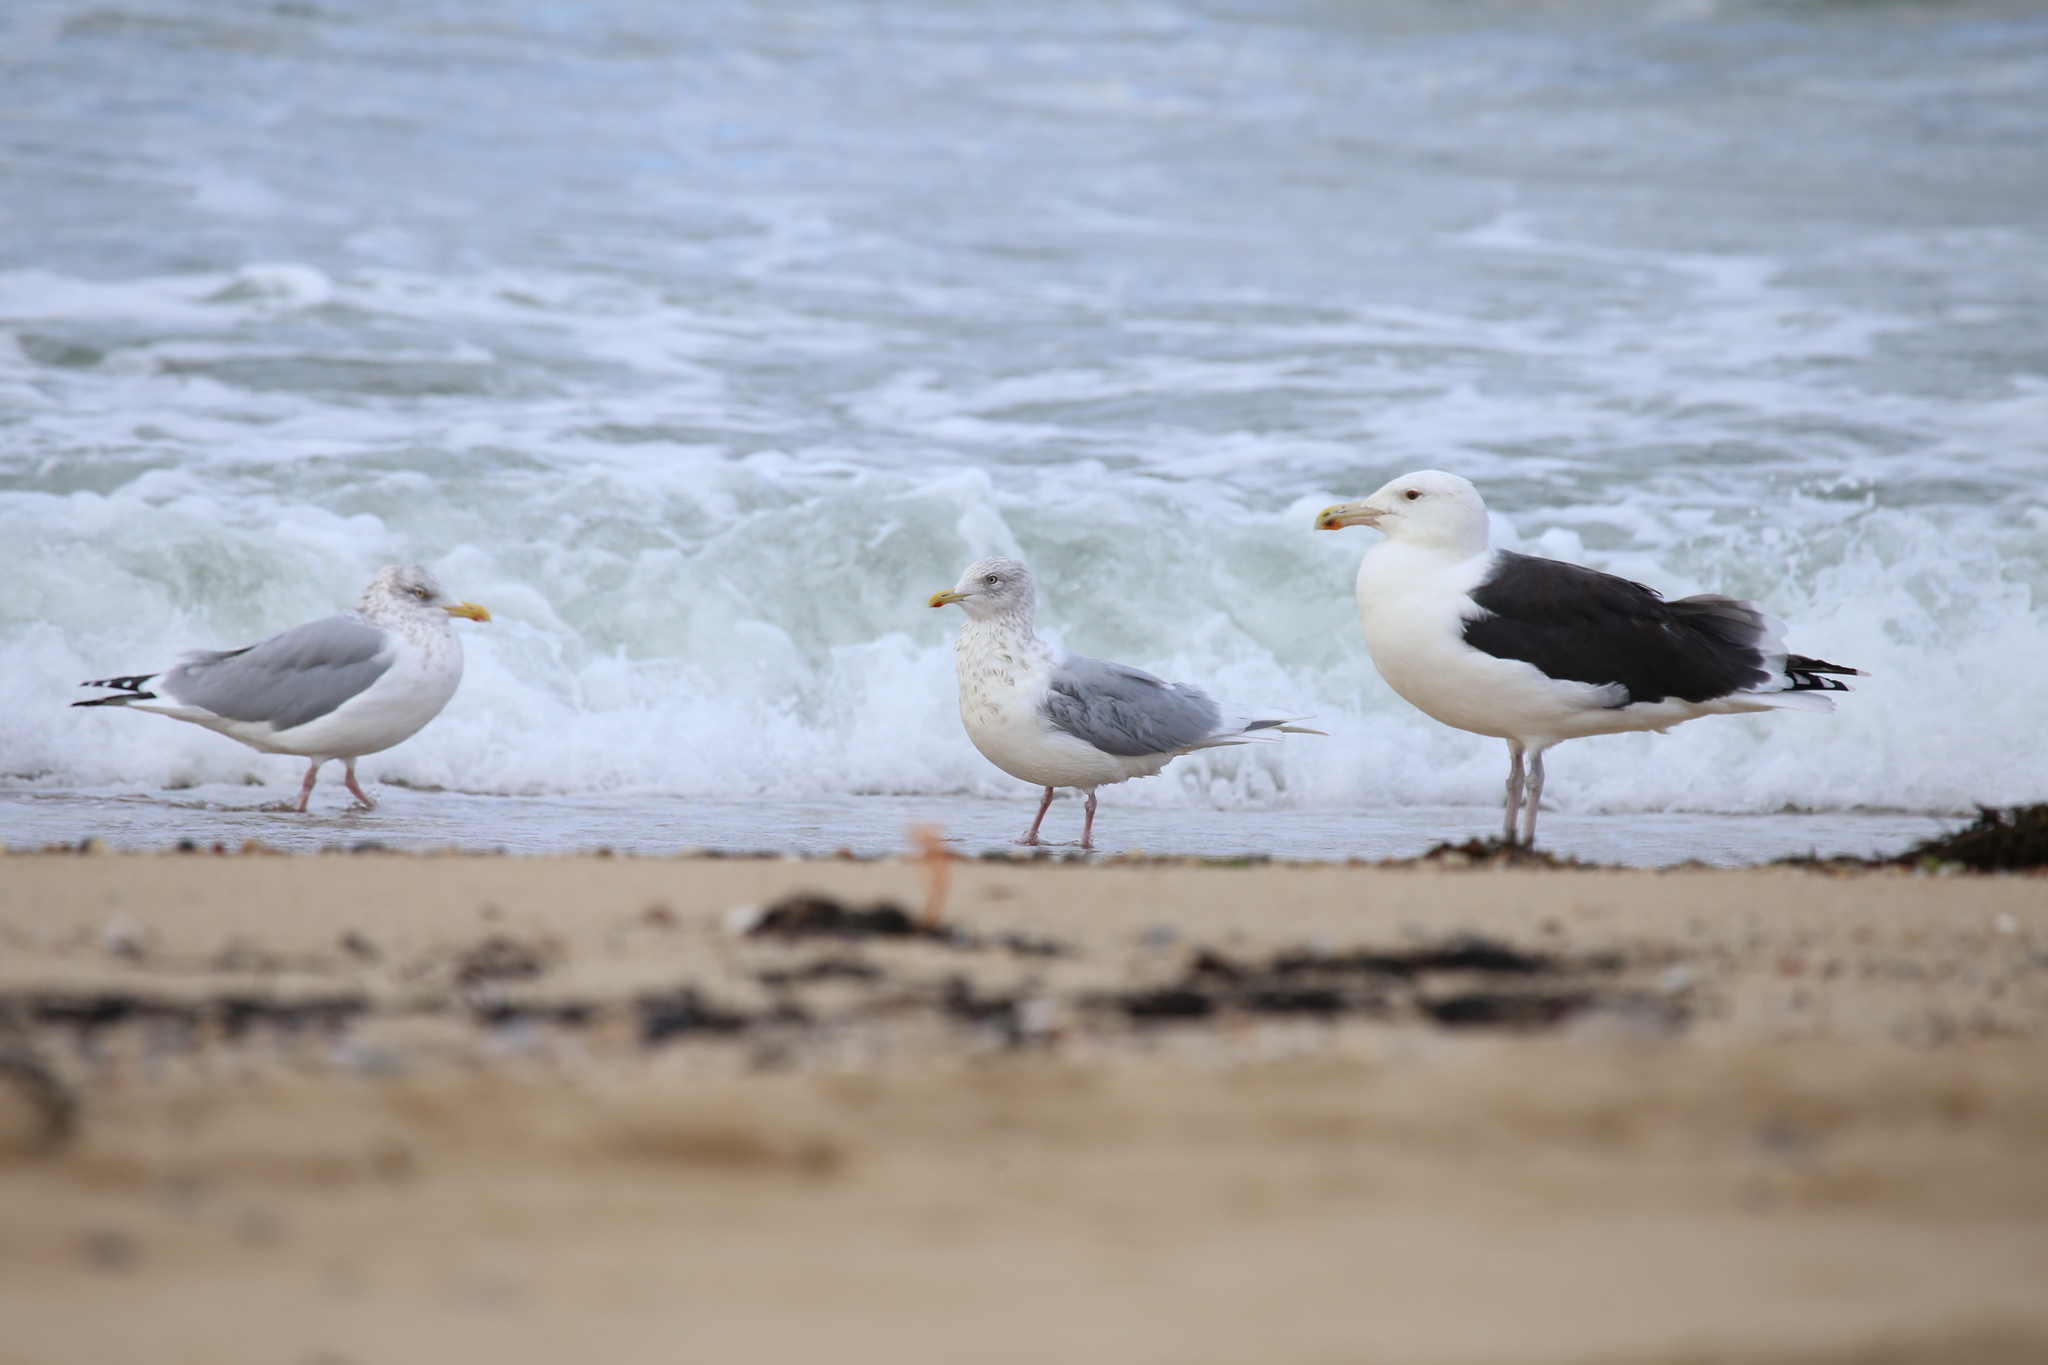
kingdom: Animalia
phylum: Chordata
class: Aves
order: Charadriiformes
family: Laridae
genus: Larus
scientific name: Larus glaucoides
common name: Iceland gull
